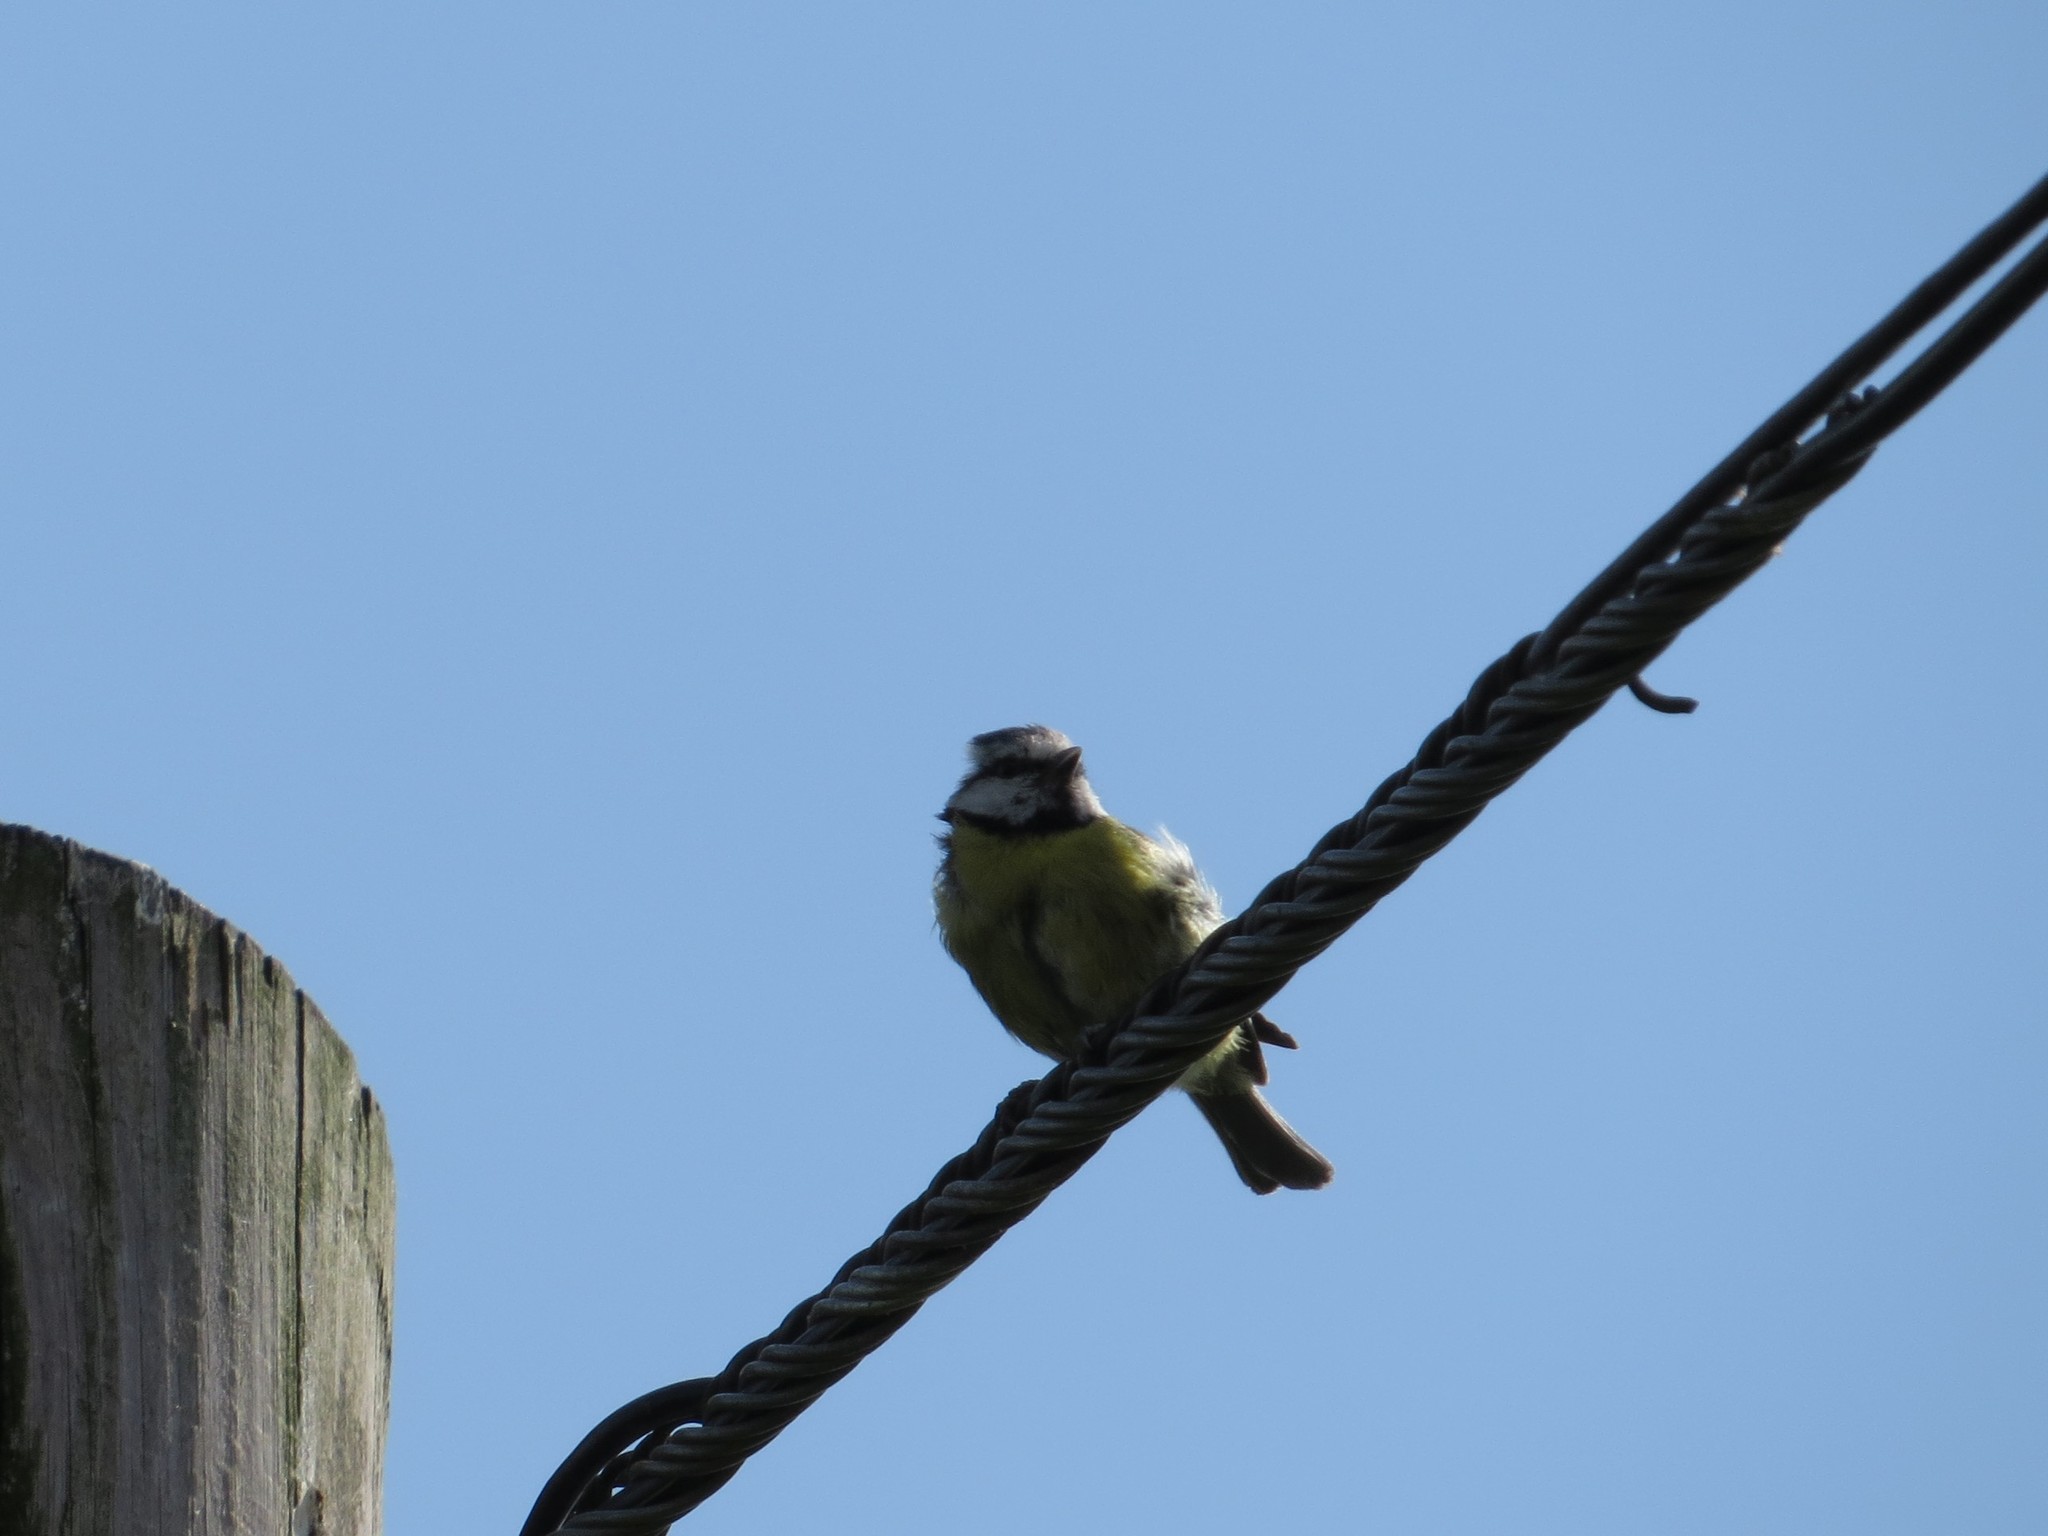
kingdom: Animalia
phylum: Chordata
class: Aves
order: Passeriformes
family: Paridae
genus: Cyanistes
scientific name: Cyanistes caeruleus
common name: Eurasian blue tit
